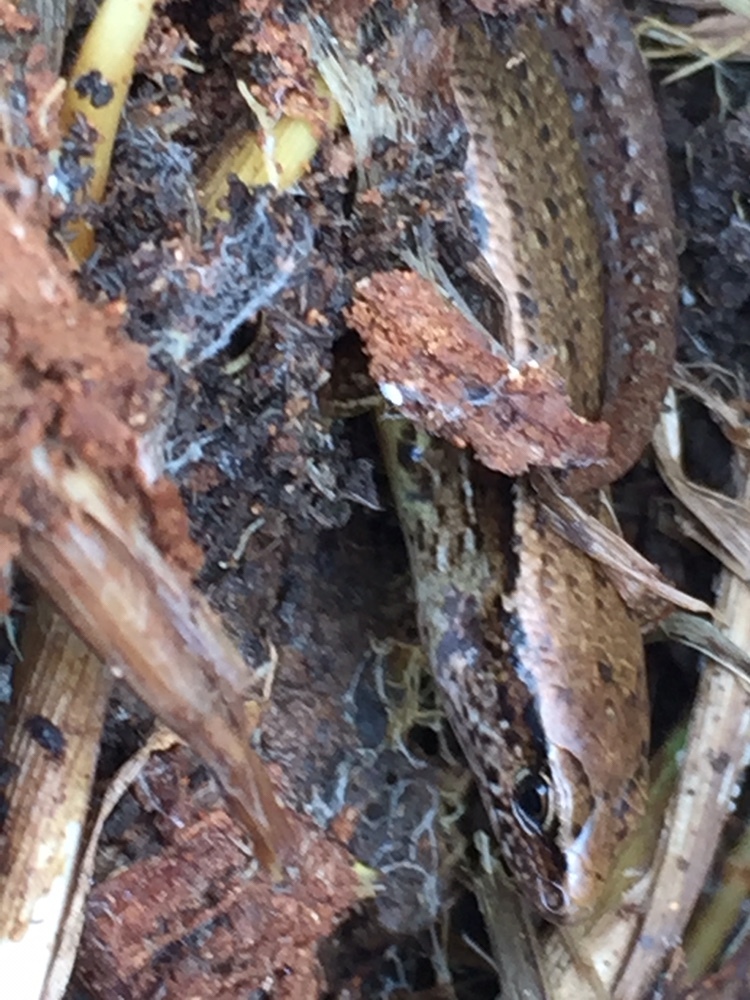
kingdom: Animalia
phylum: Chordata
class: Squamata
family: Scincidae
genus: Oligosoma
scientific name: Oligosoma aeneum
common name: Copper skink
